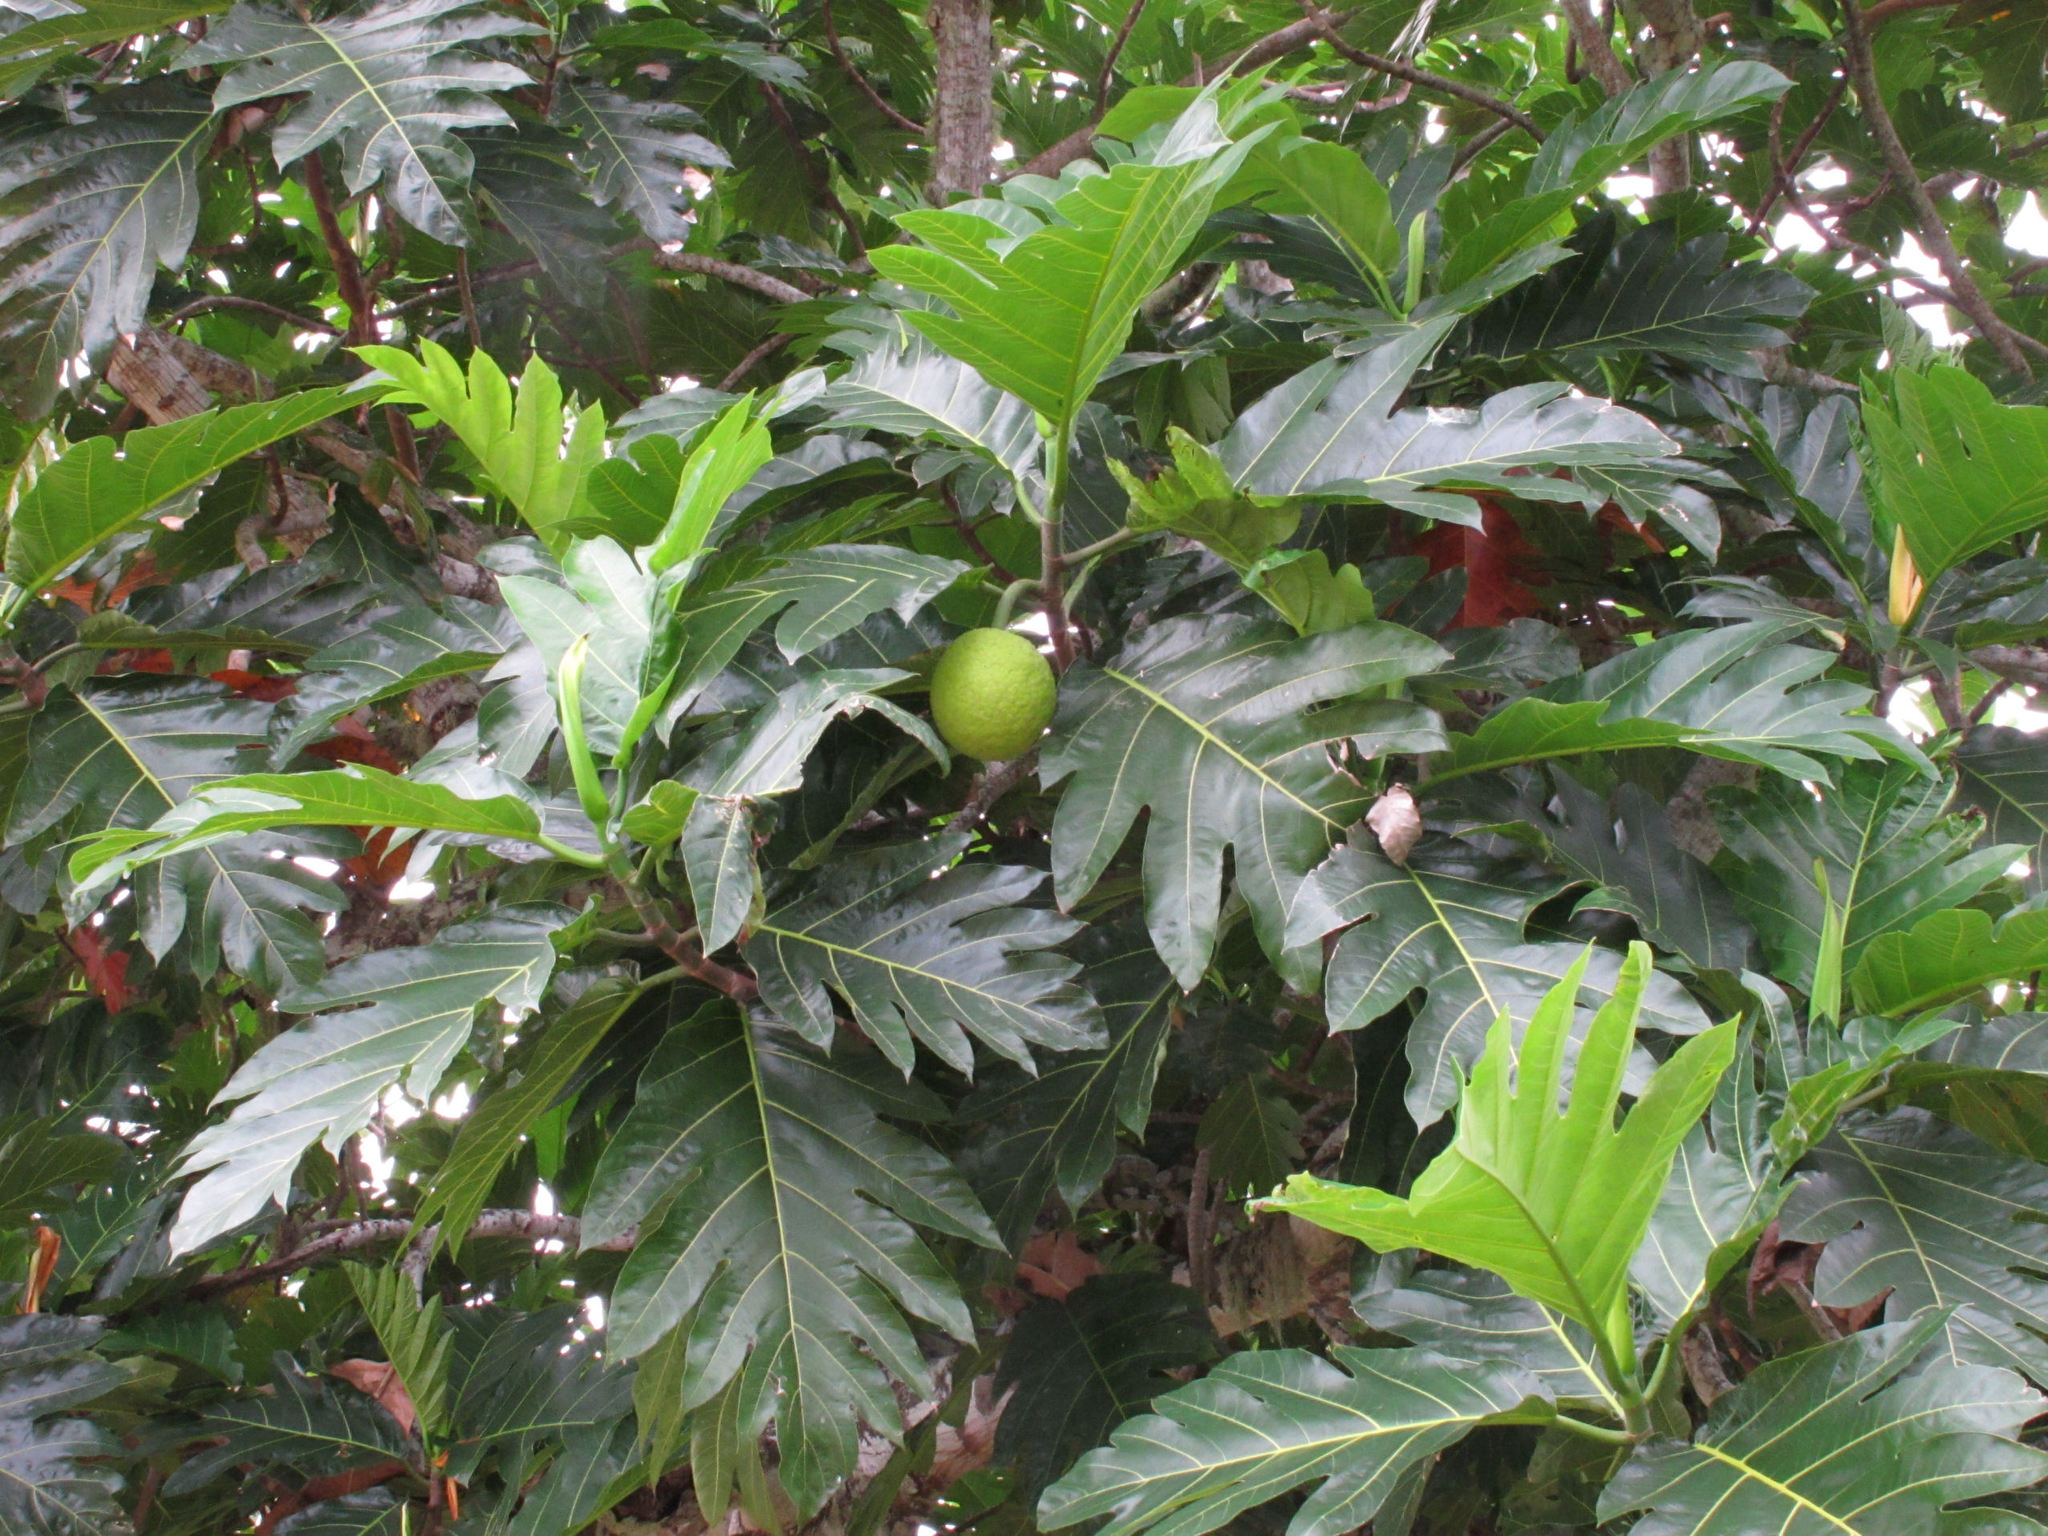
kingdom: Plantae
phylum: Tracheophyta
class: Magnoliopsida
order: Rosales
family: Moraceae
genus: Artocarpus
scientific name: Artocarpus altilis
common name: Breadfruit
